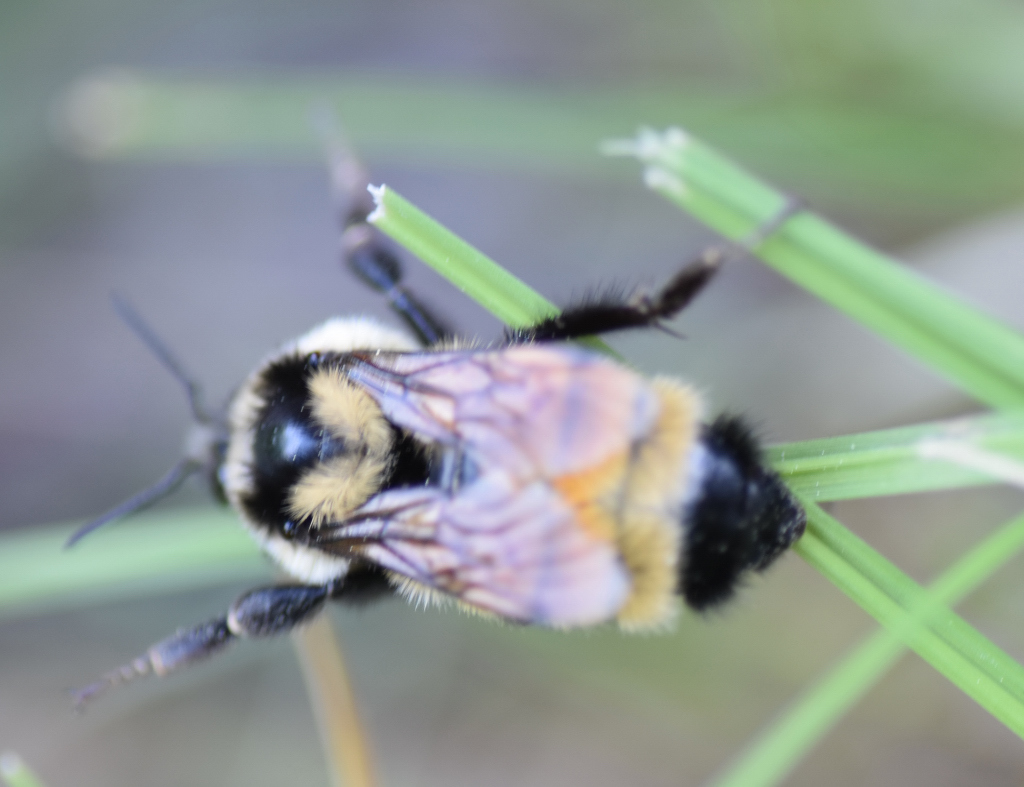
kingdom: Animalia
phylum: Arthropoda
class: Insecta
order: Hymenoptera
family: Apidae
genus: Bombus
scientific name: Bombus ternarius
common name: Tri-colored bumble bee
